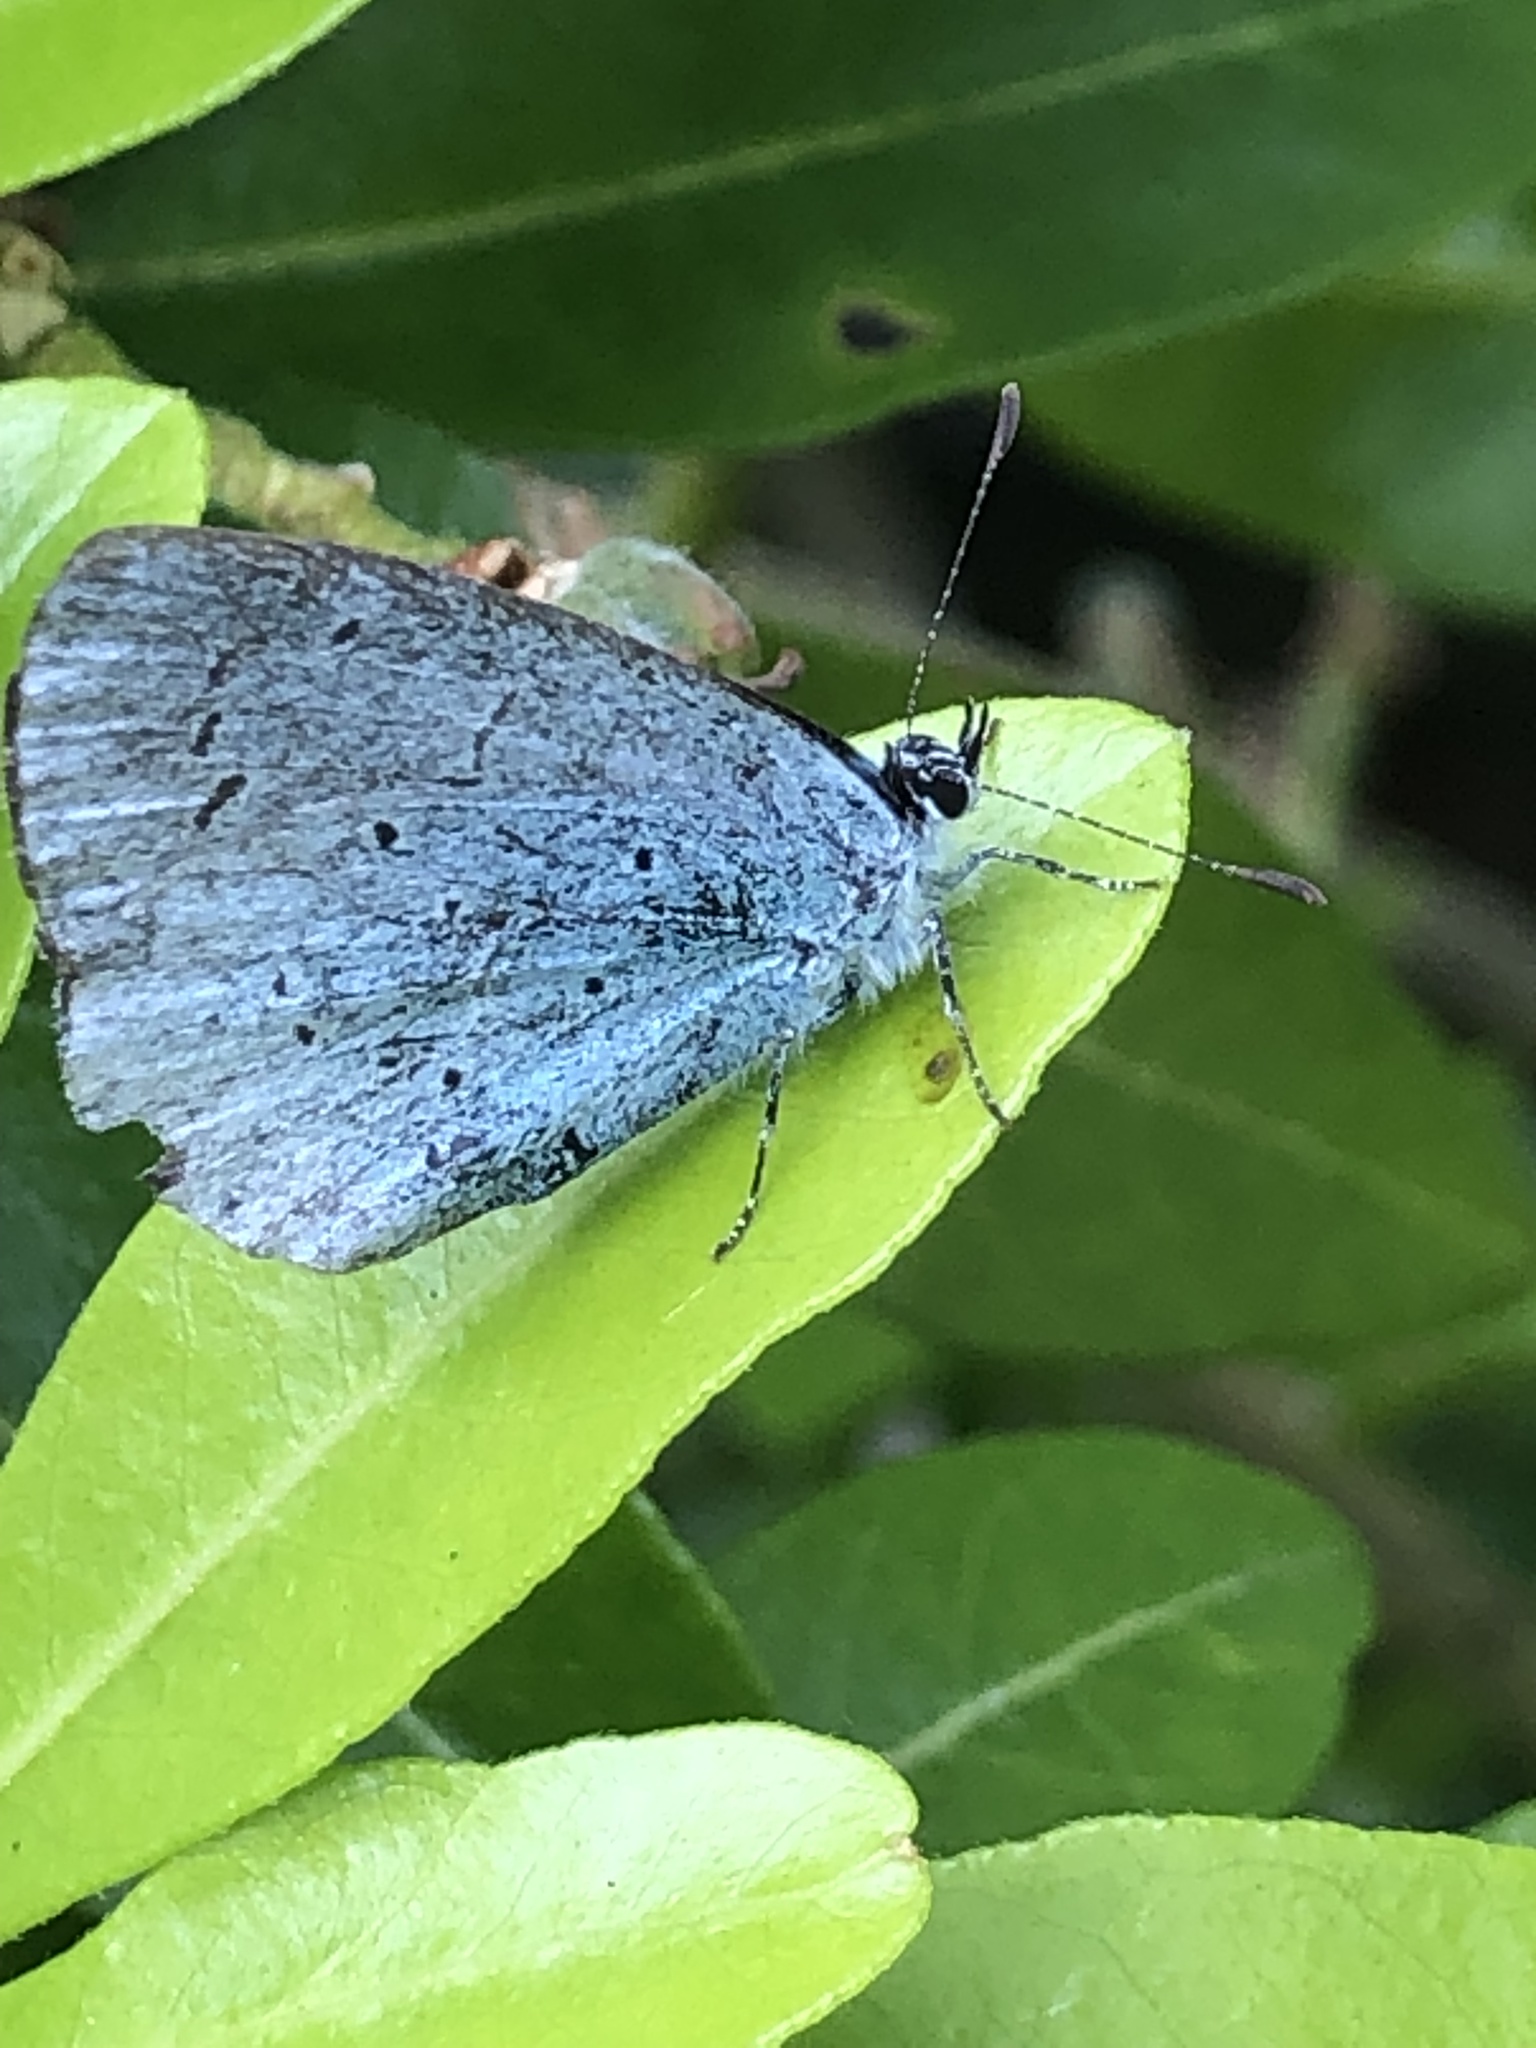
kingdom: Animalia
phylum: Arthropoda
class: Insecta
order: Lepidoptera
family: Lycaenidae
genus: Celastrina
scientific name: Celastrina argiolus
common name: Holly blue
